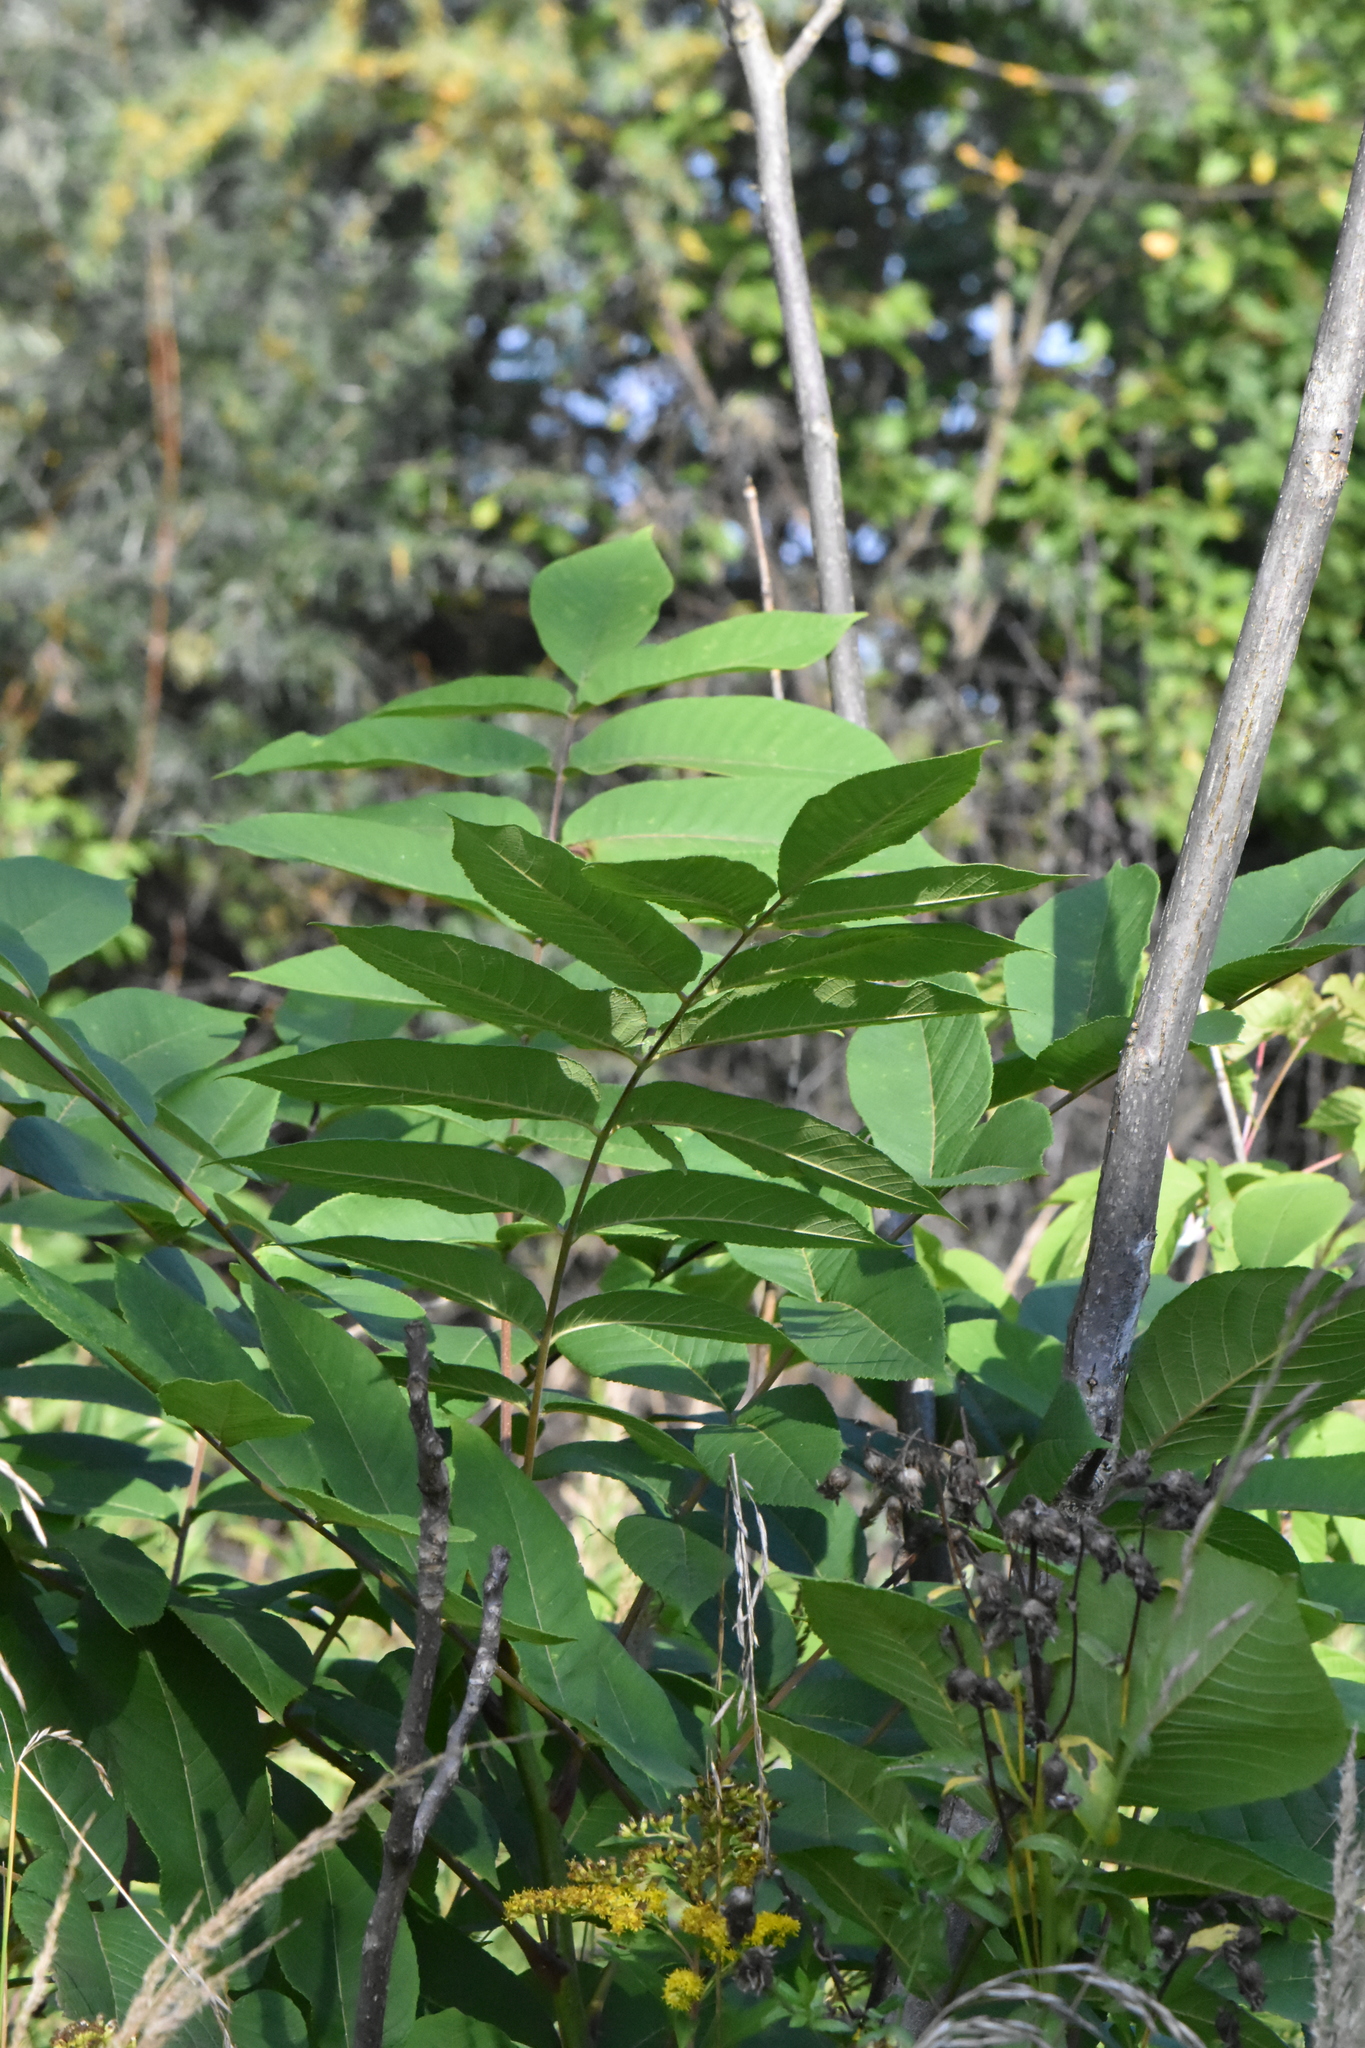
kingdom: Plantae
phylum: Tracheophyta
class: Magnoliopsida
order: Fagales
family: Juglandaceae
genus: Juglans
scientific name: Juglans mandshurica
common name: Manchurian walnut
